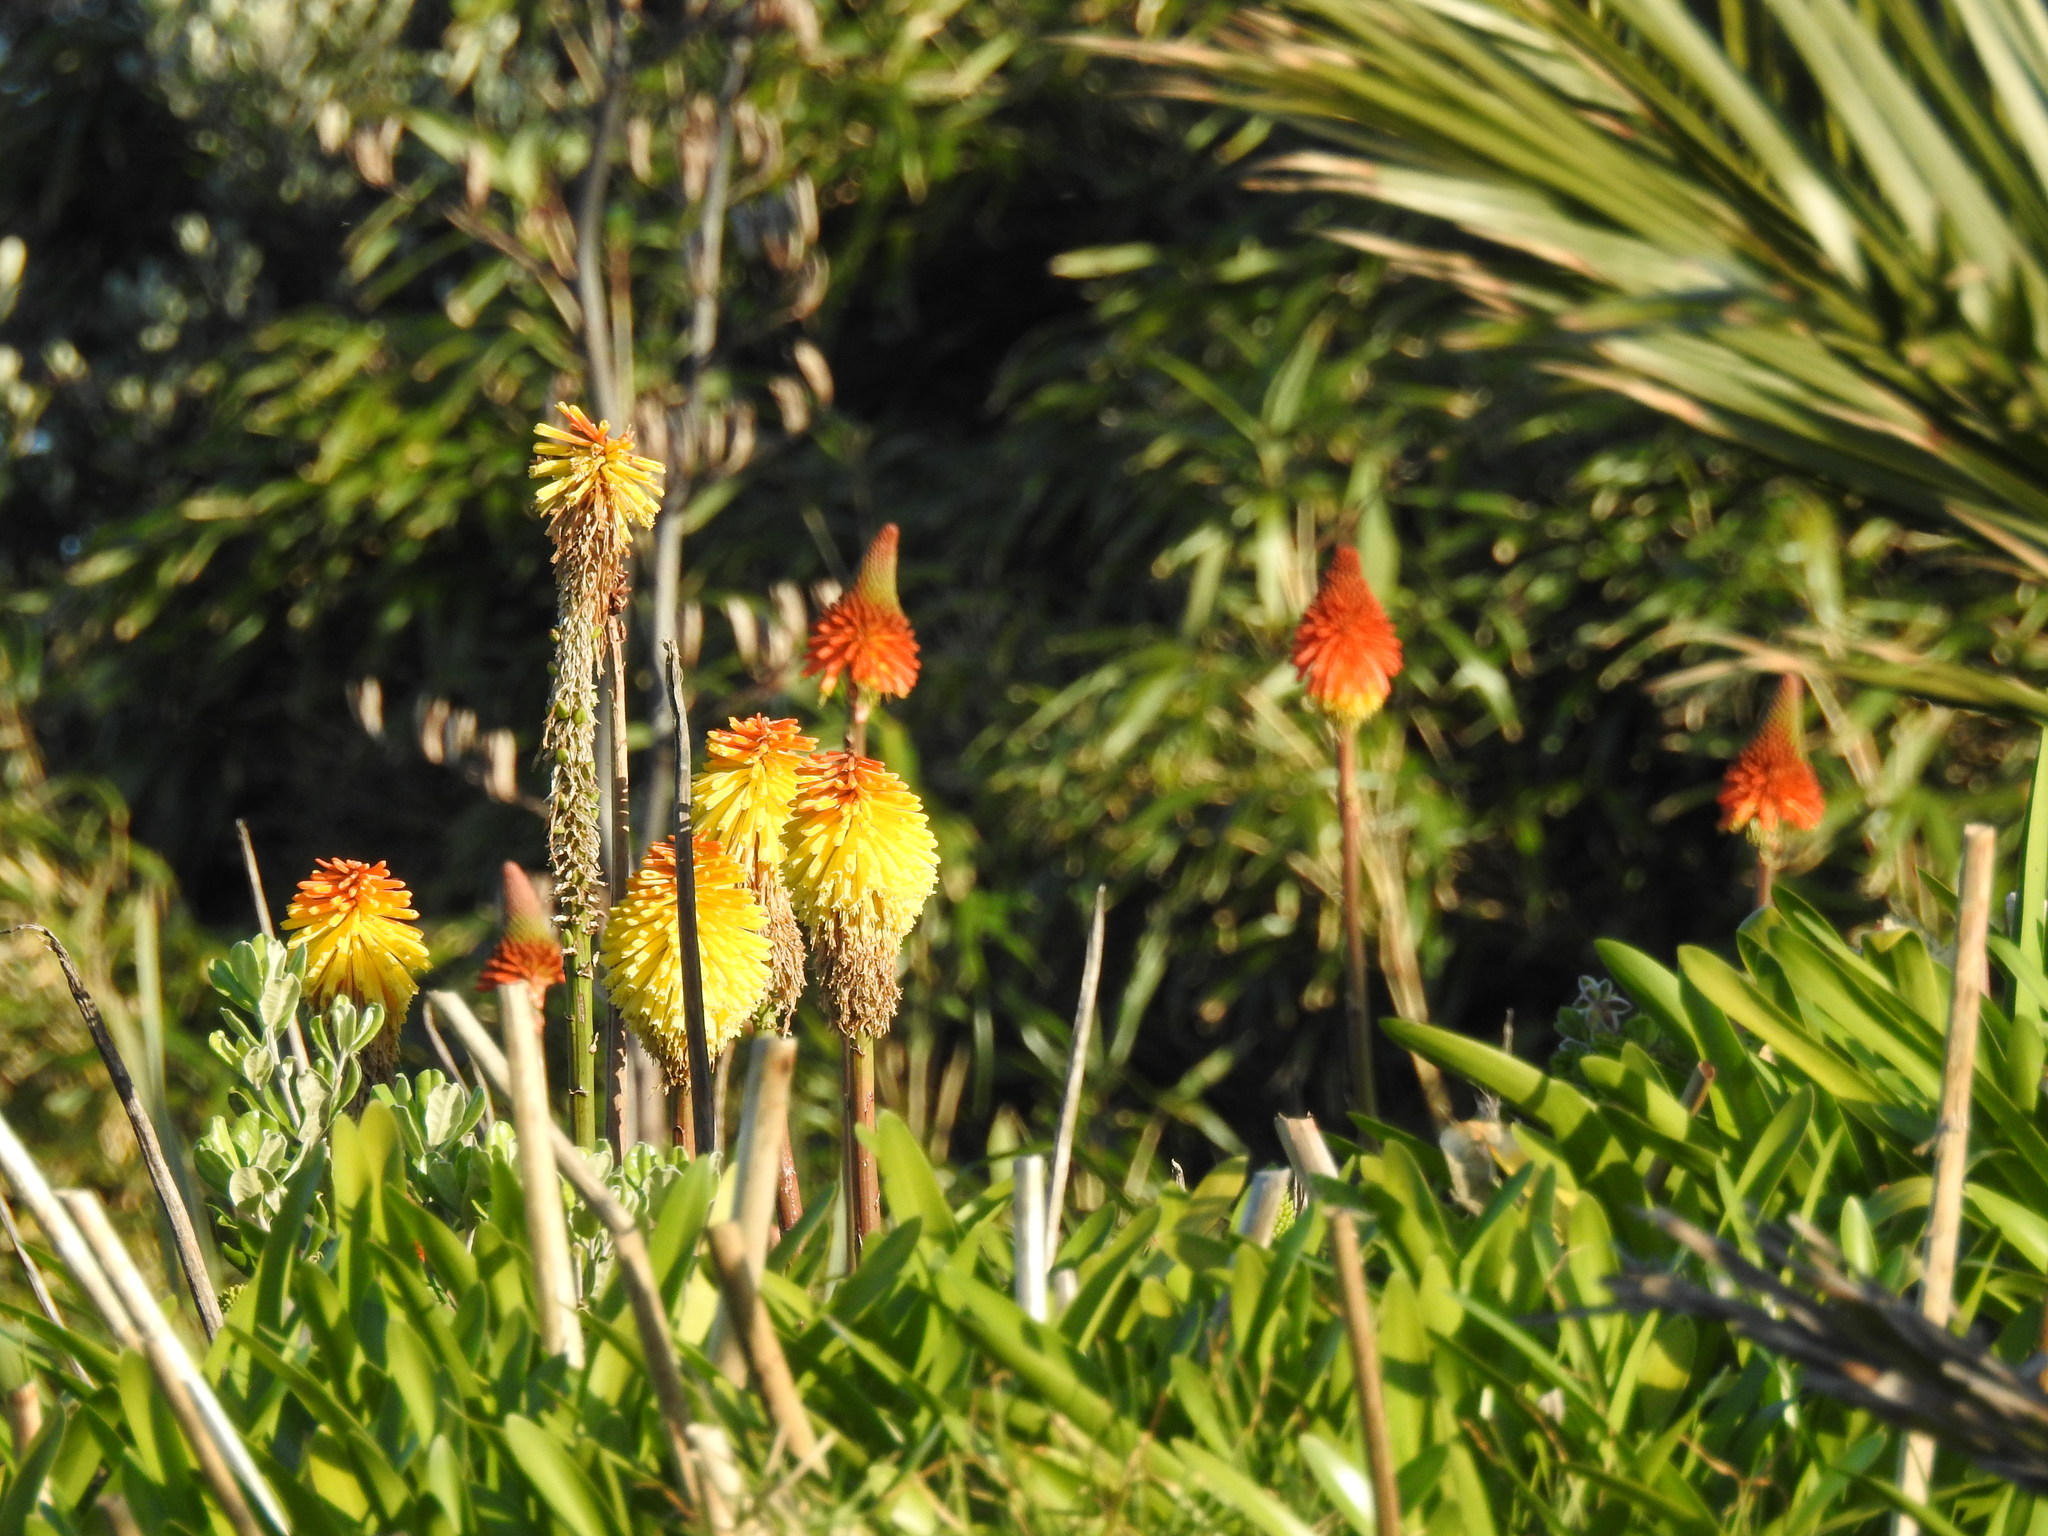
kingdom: Plantae
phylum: Tracheophyta
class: Liliopsida
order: Asparagales
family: Asphodelaceae
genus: Kniphofia
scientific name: Kniphofia
